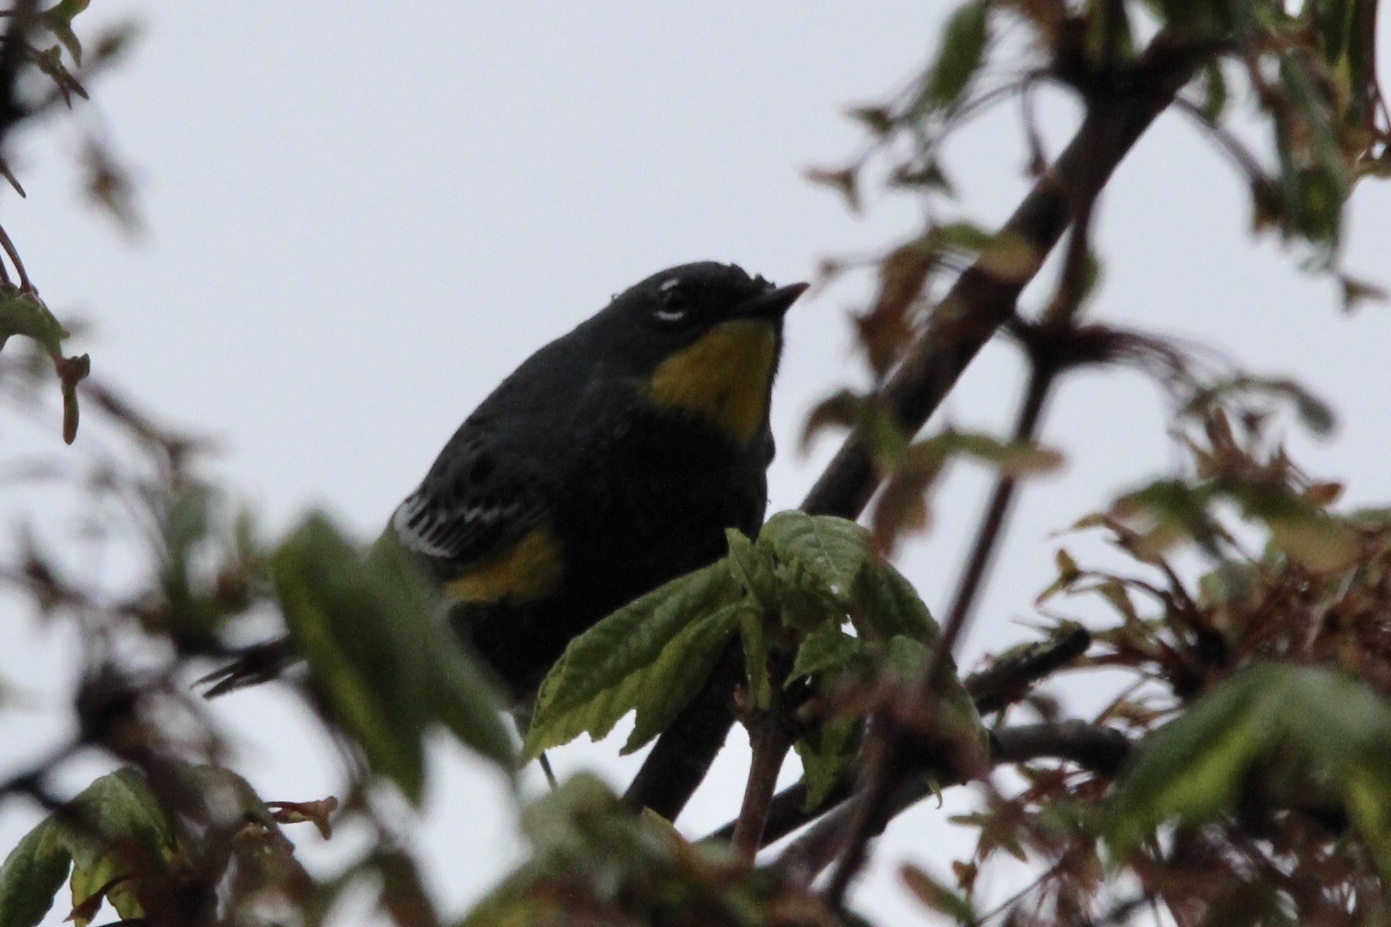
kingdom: Animalia
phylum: Chordata
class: Aves
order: Passeriformes
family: Parulidae
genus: Setophaga
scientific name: Setophaga auduboni
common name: Audubon's warbler
